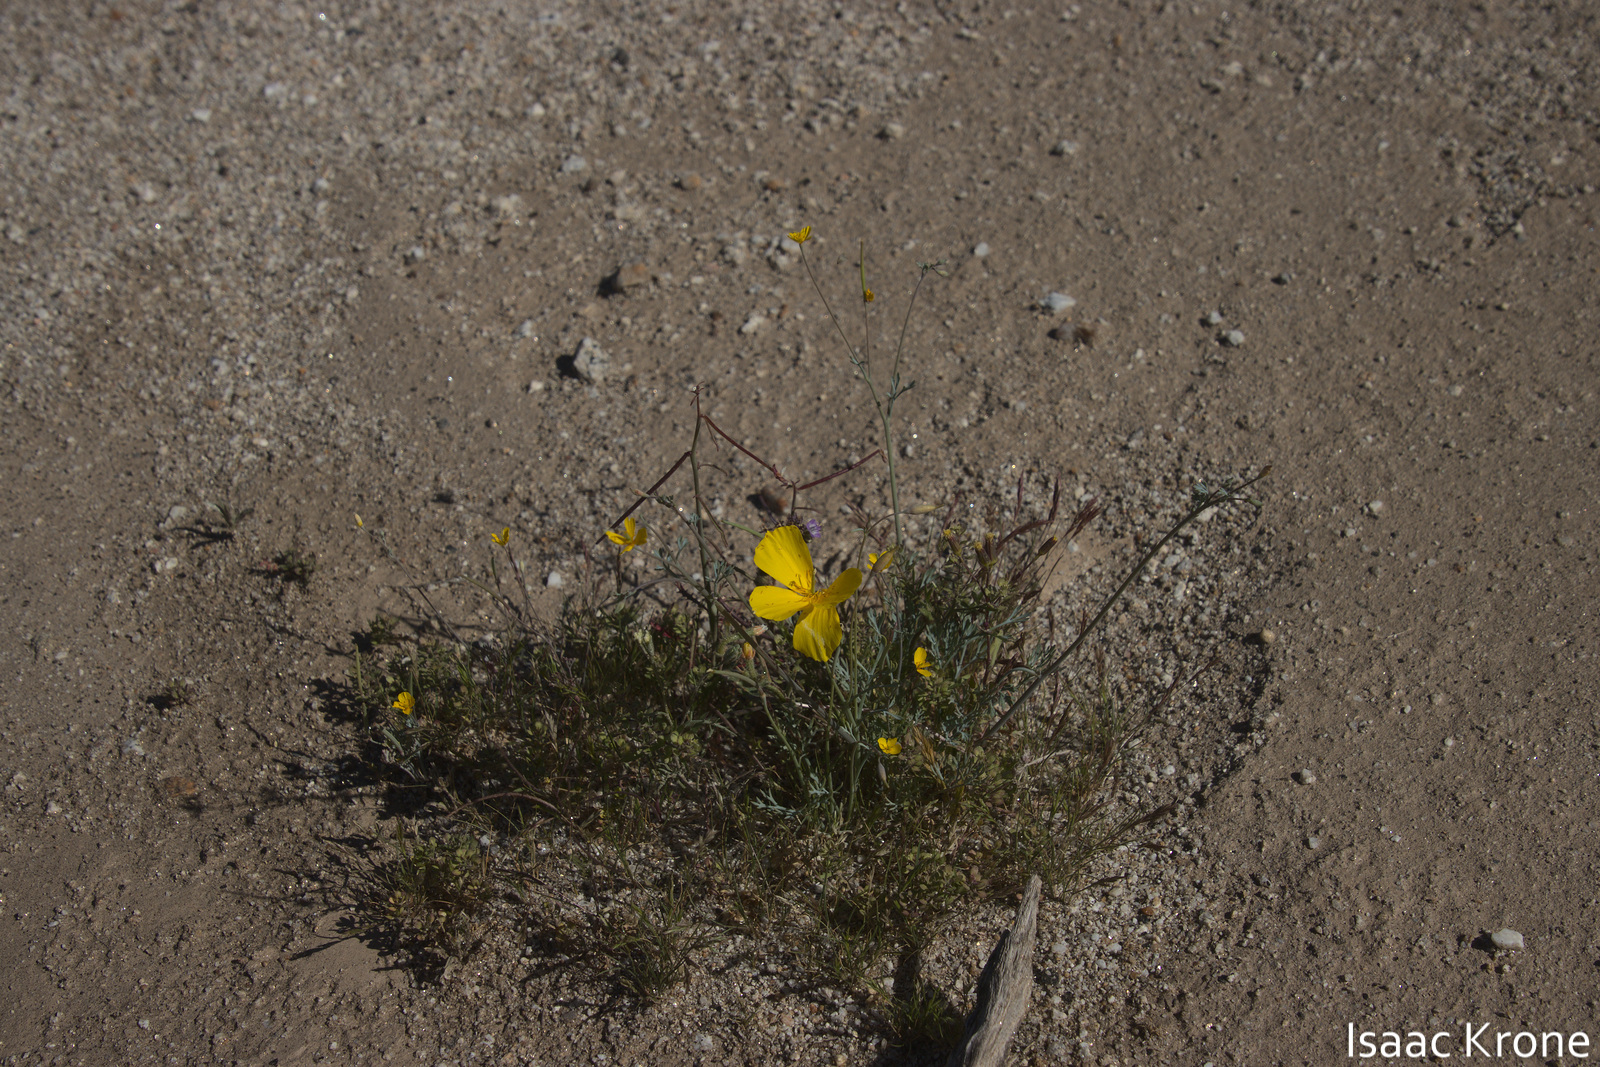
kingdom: Plantae
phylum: Tracheophyta
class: Magnoliopsida
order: Ranunculales
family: Papaveraceae
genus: Eschscholzia
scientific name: Eschscholzia parishii
